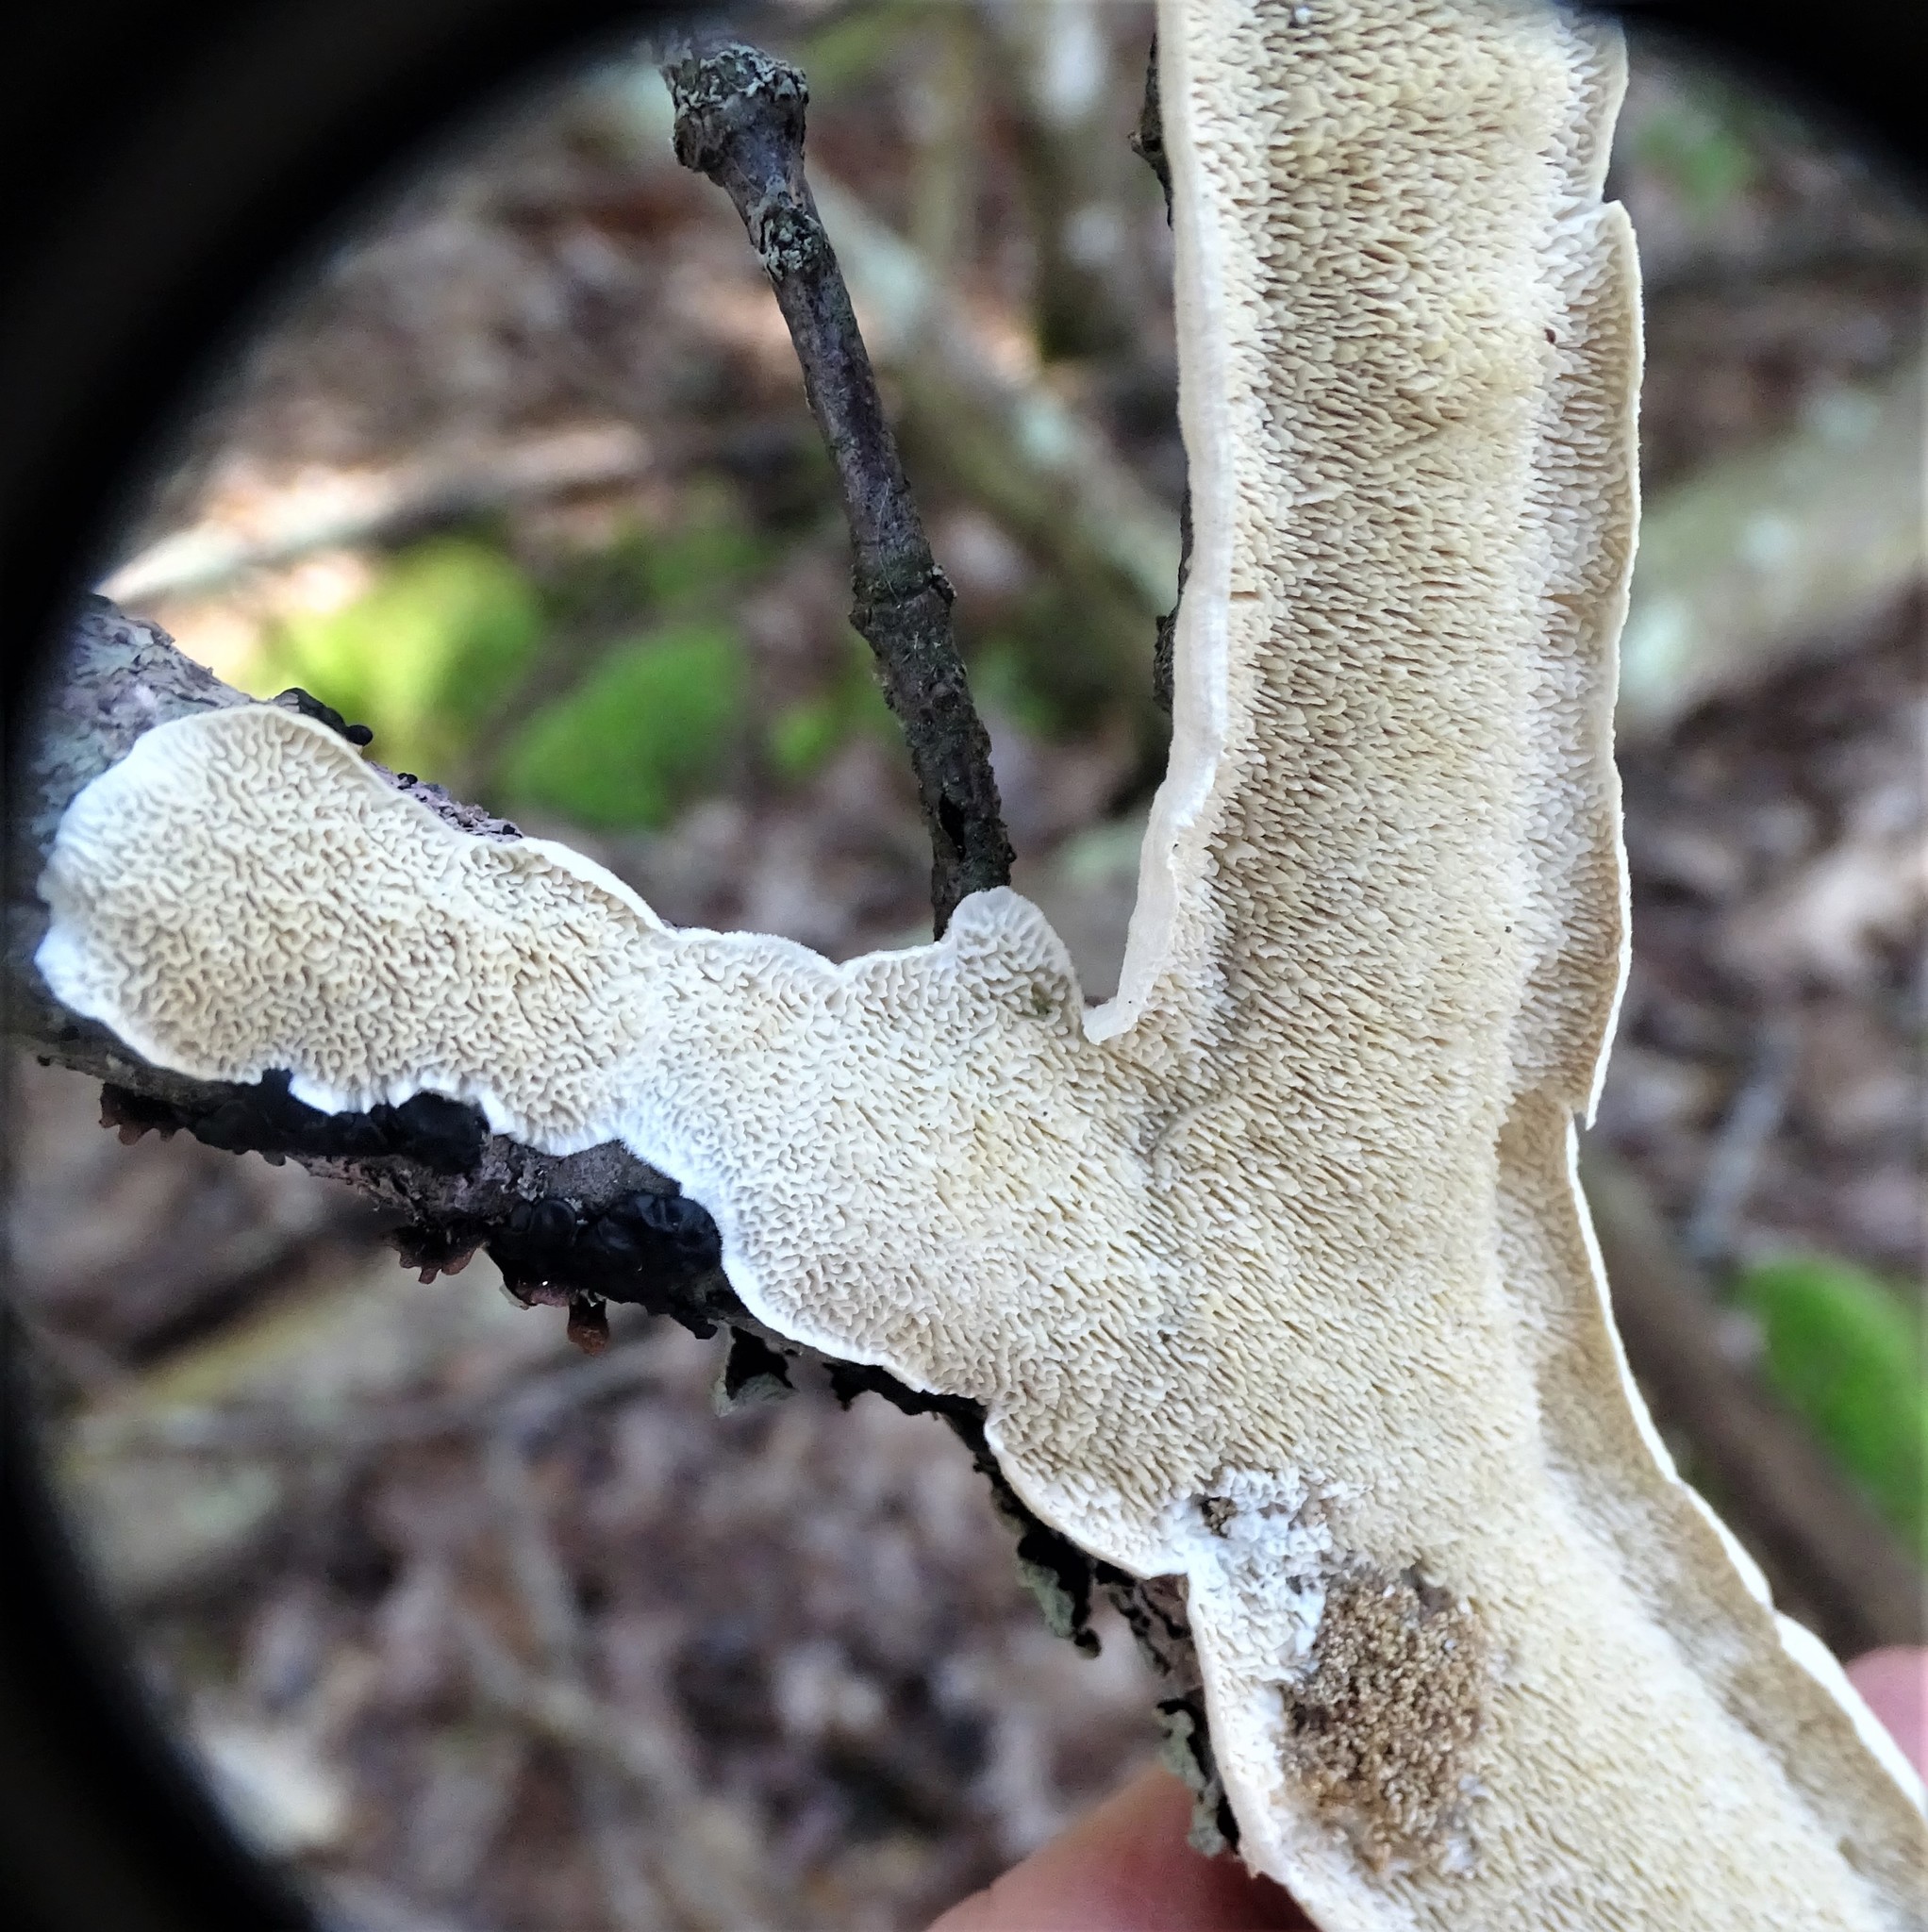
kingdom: Fungi
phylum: Basidiomycota
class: Agaricomycetes
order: Polyporales
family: Irpicaceae
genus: Irpex
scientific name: Irpex lacteus
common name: Milk-white toothed polypore
